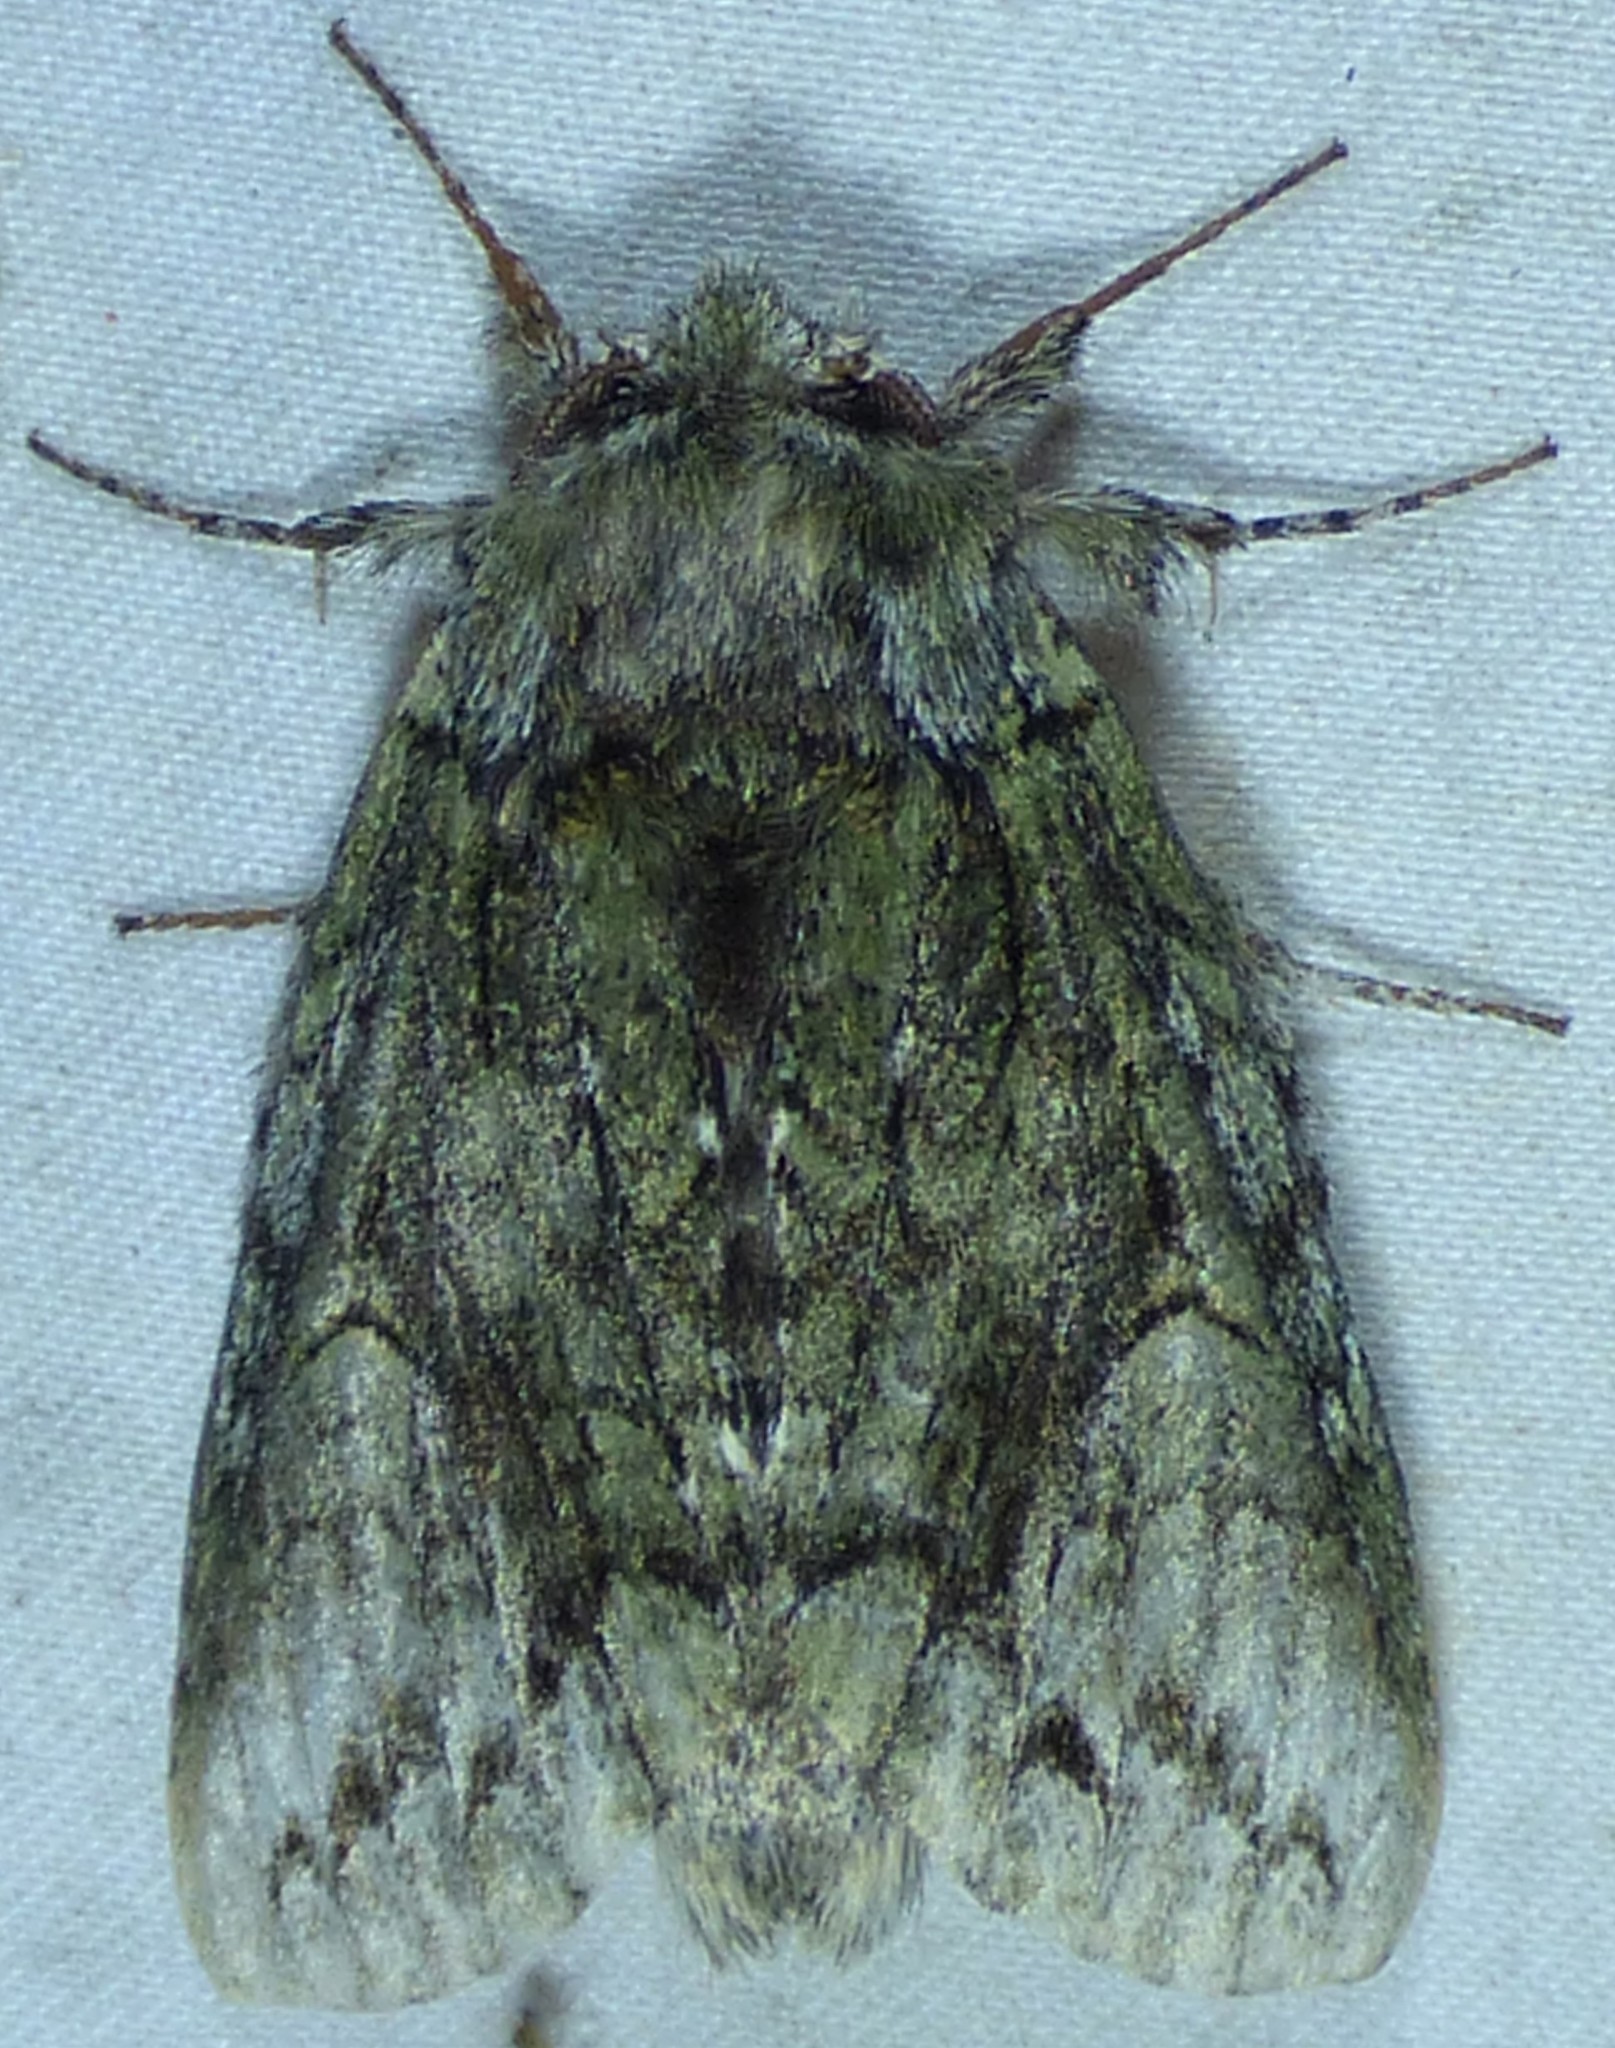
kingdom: Animalia
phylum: Arthropoda
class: Insecta
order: Lepidoptera
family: Notodontidae
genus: Heterocampa
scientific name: Heterocampa
